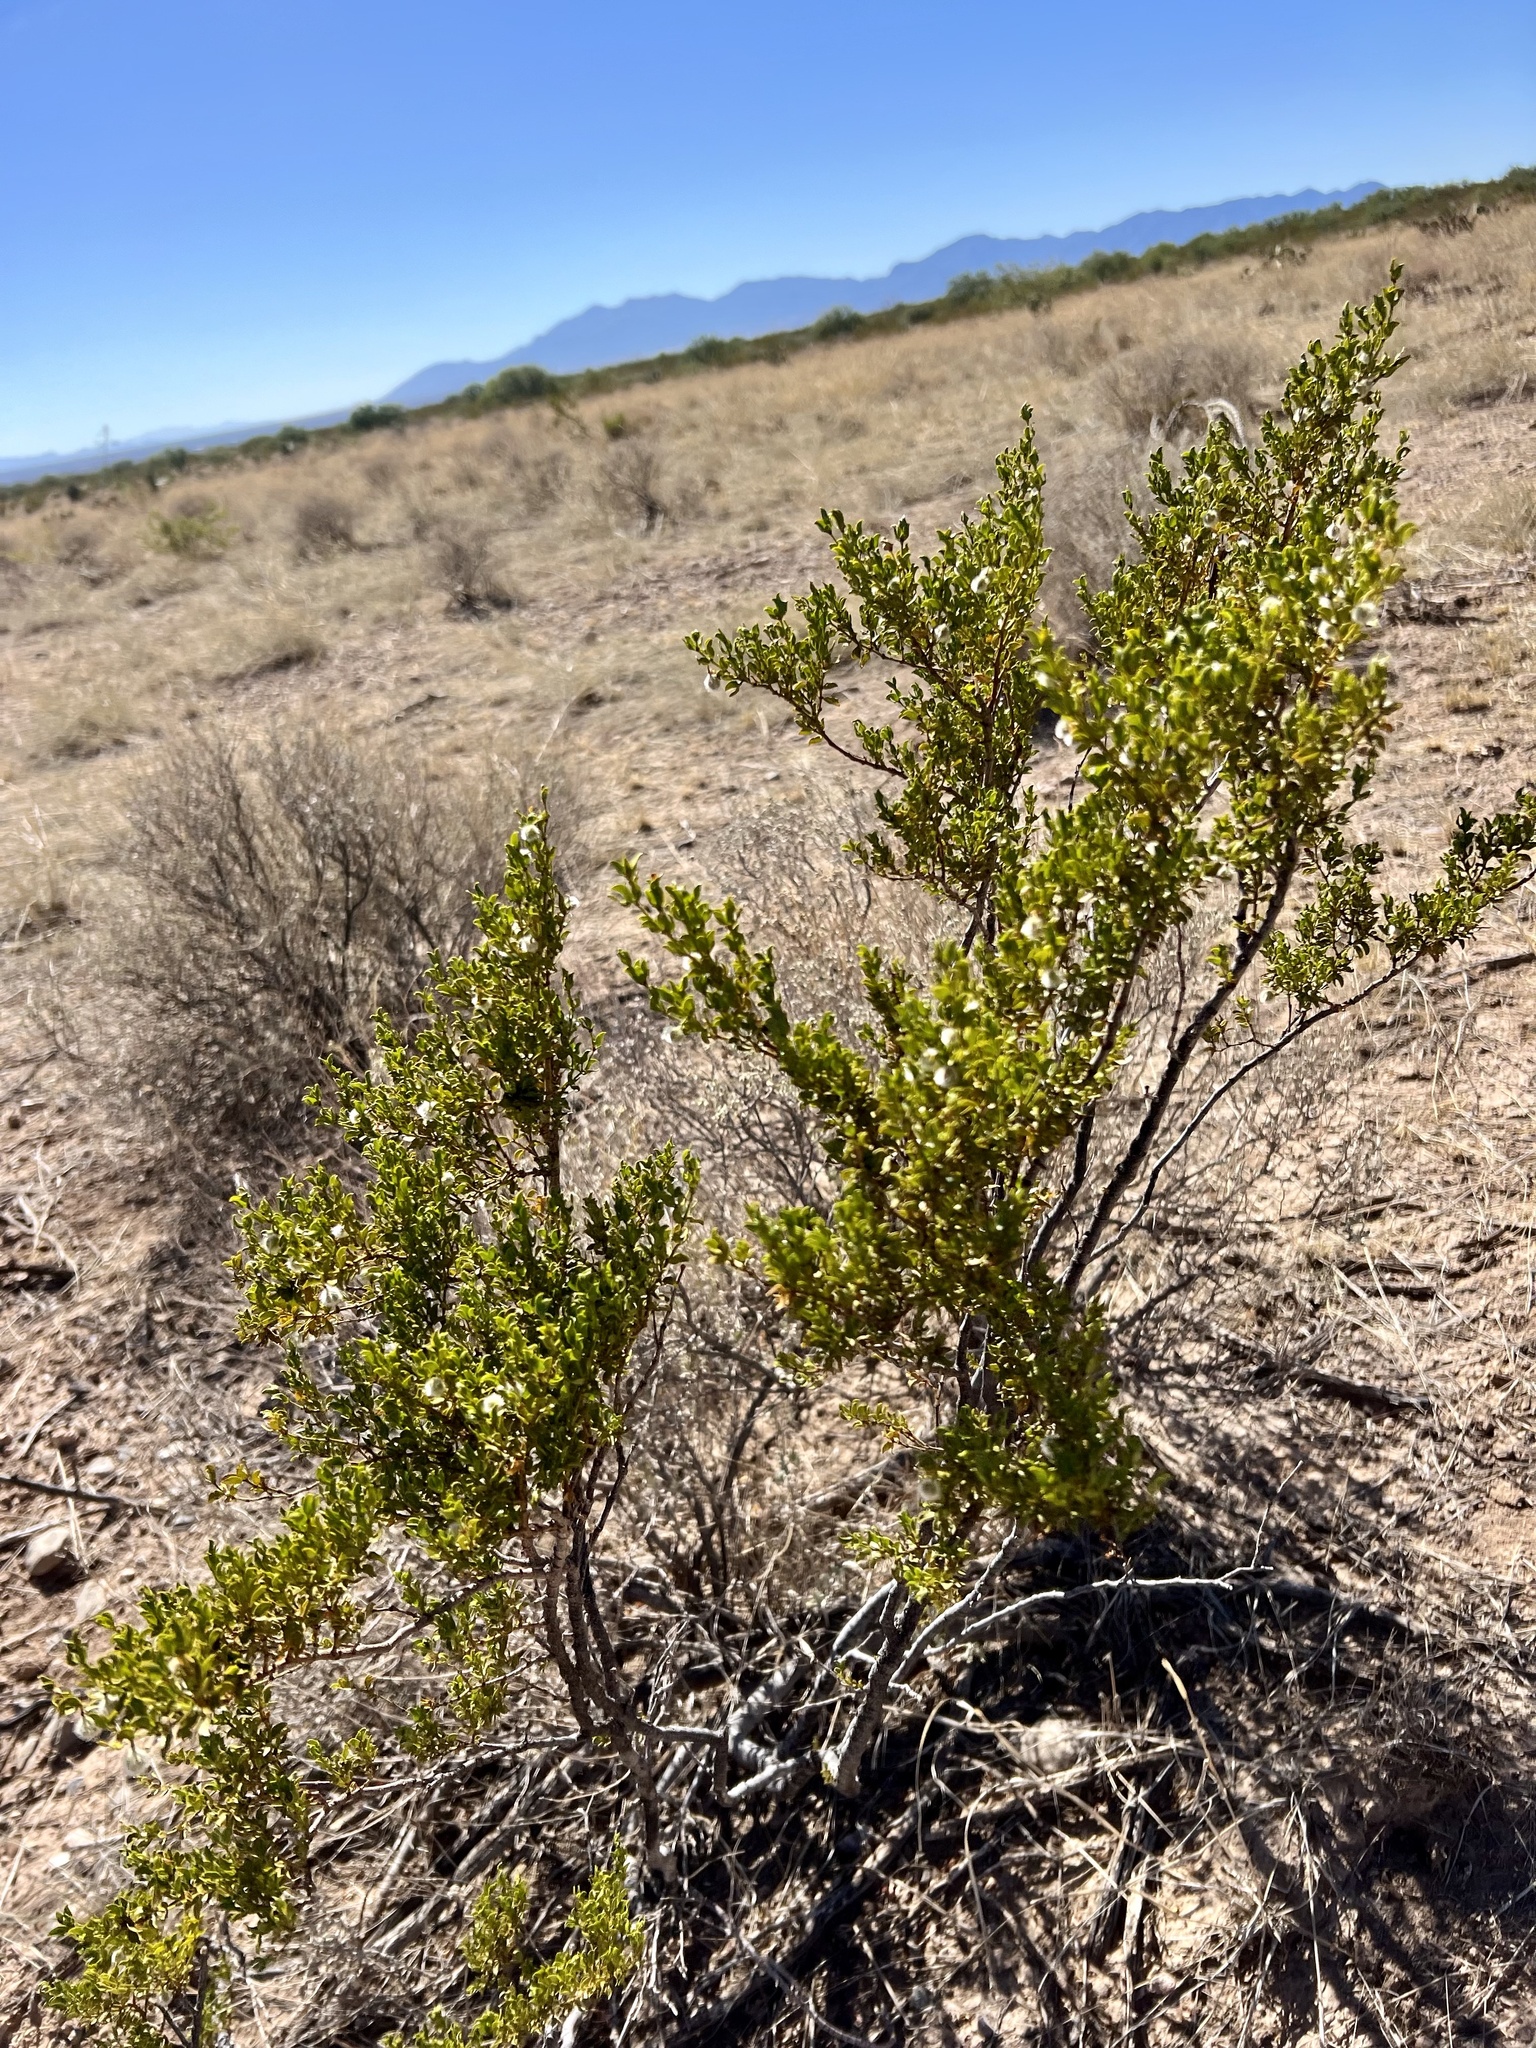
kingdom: Plantae
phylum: Tracheophyta
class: Magnoliopsida
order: Zygophyllales
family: Zygophyllaceae
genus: Larrea
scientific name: Larrea tridentata
